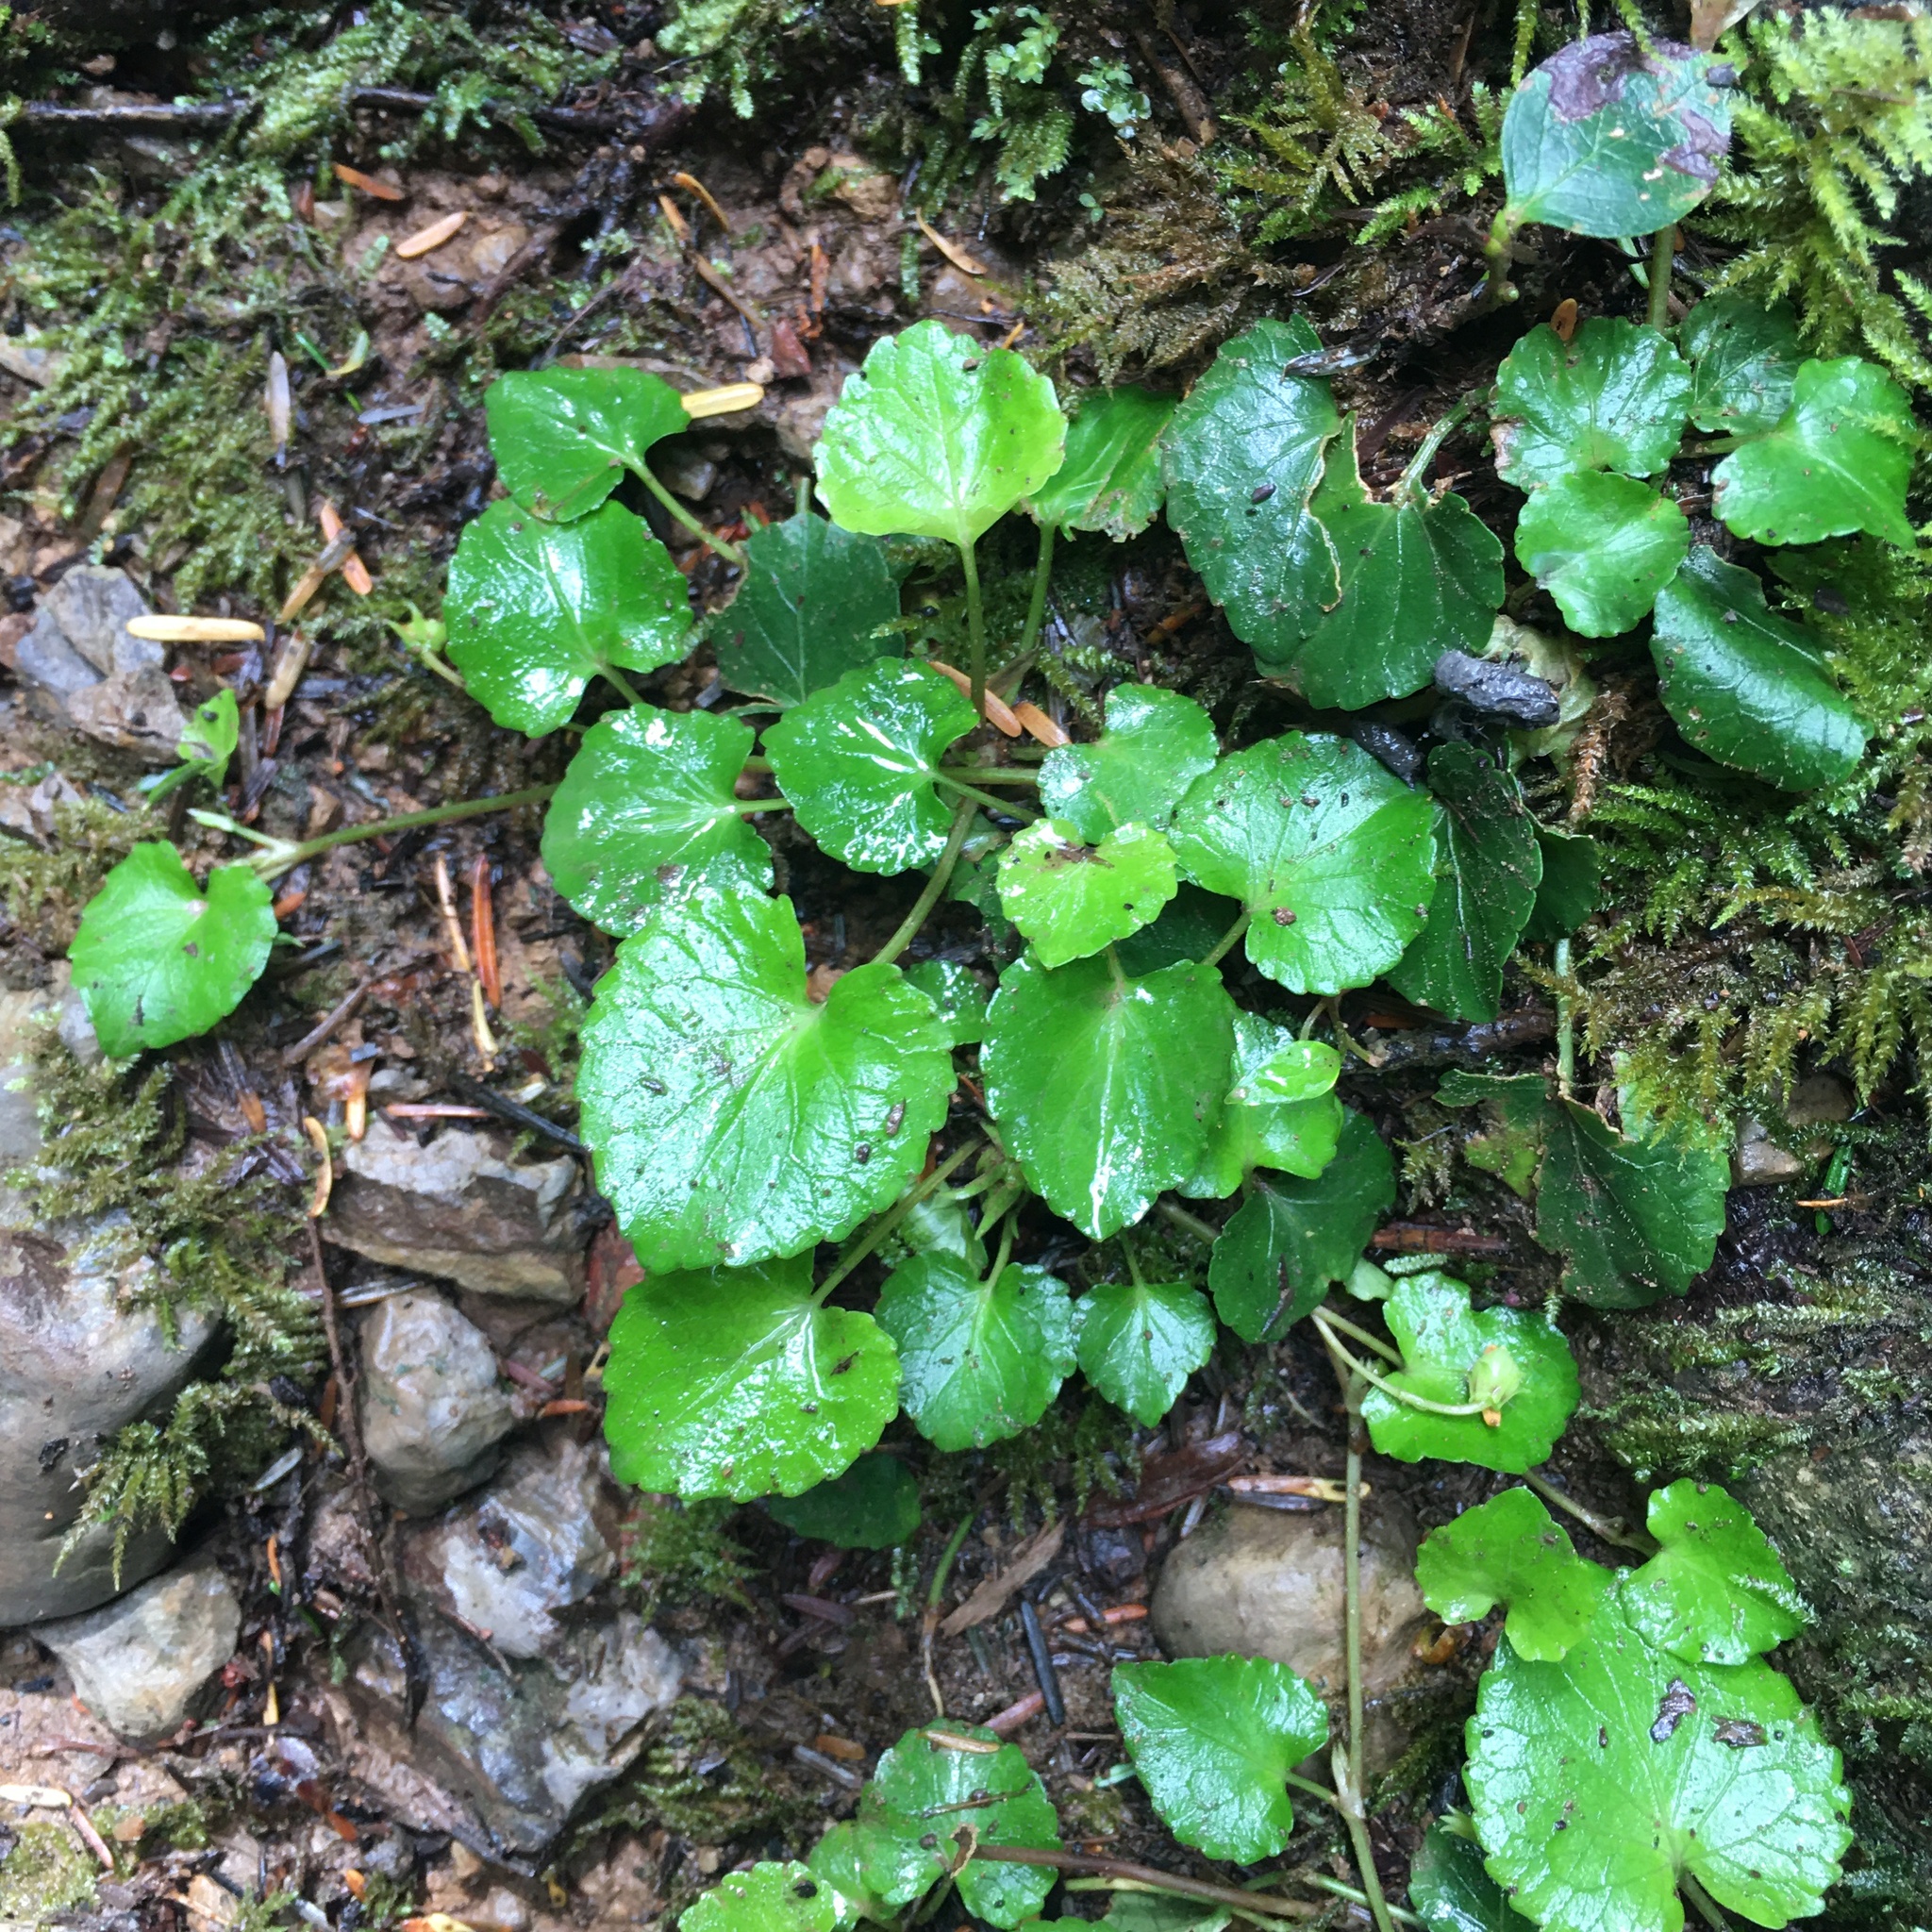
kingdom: Plantae
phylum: Tracheophyta
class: Magnoliopsida
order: Malpighiales
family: Violaceae
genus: Viola
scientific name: Viola sempervirens
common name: Evergreen violet
